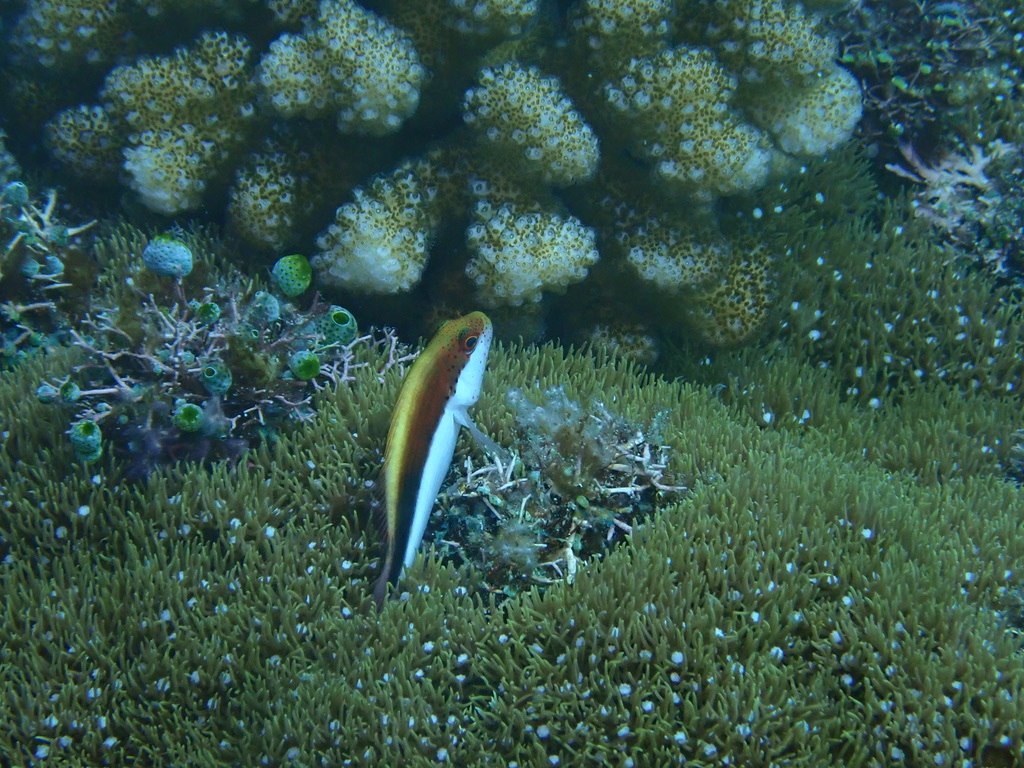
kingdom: Animalia
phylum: Chordata
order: Perciformes
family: Cirrhitidae
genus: Paracirrhites
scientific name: Paracirrhites forsteri
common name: Freckled hawkfish
